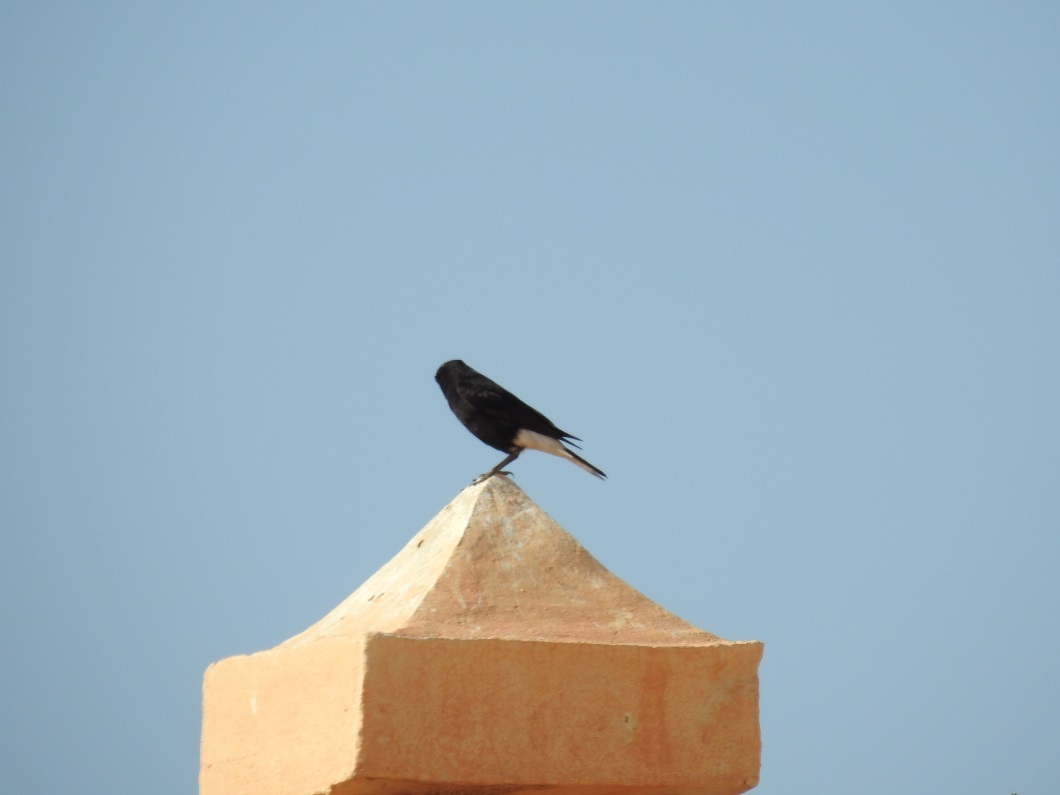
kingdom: Animalia
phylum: Chordata
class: Aves
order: Passeriformes
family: Muscicapidae
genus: Oenanthe
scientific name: Oenanthe leucopyga
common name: White-crowned wheatear
